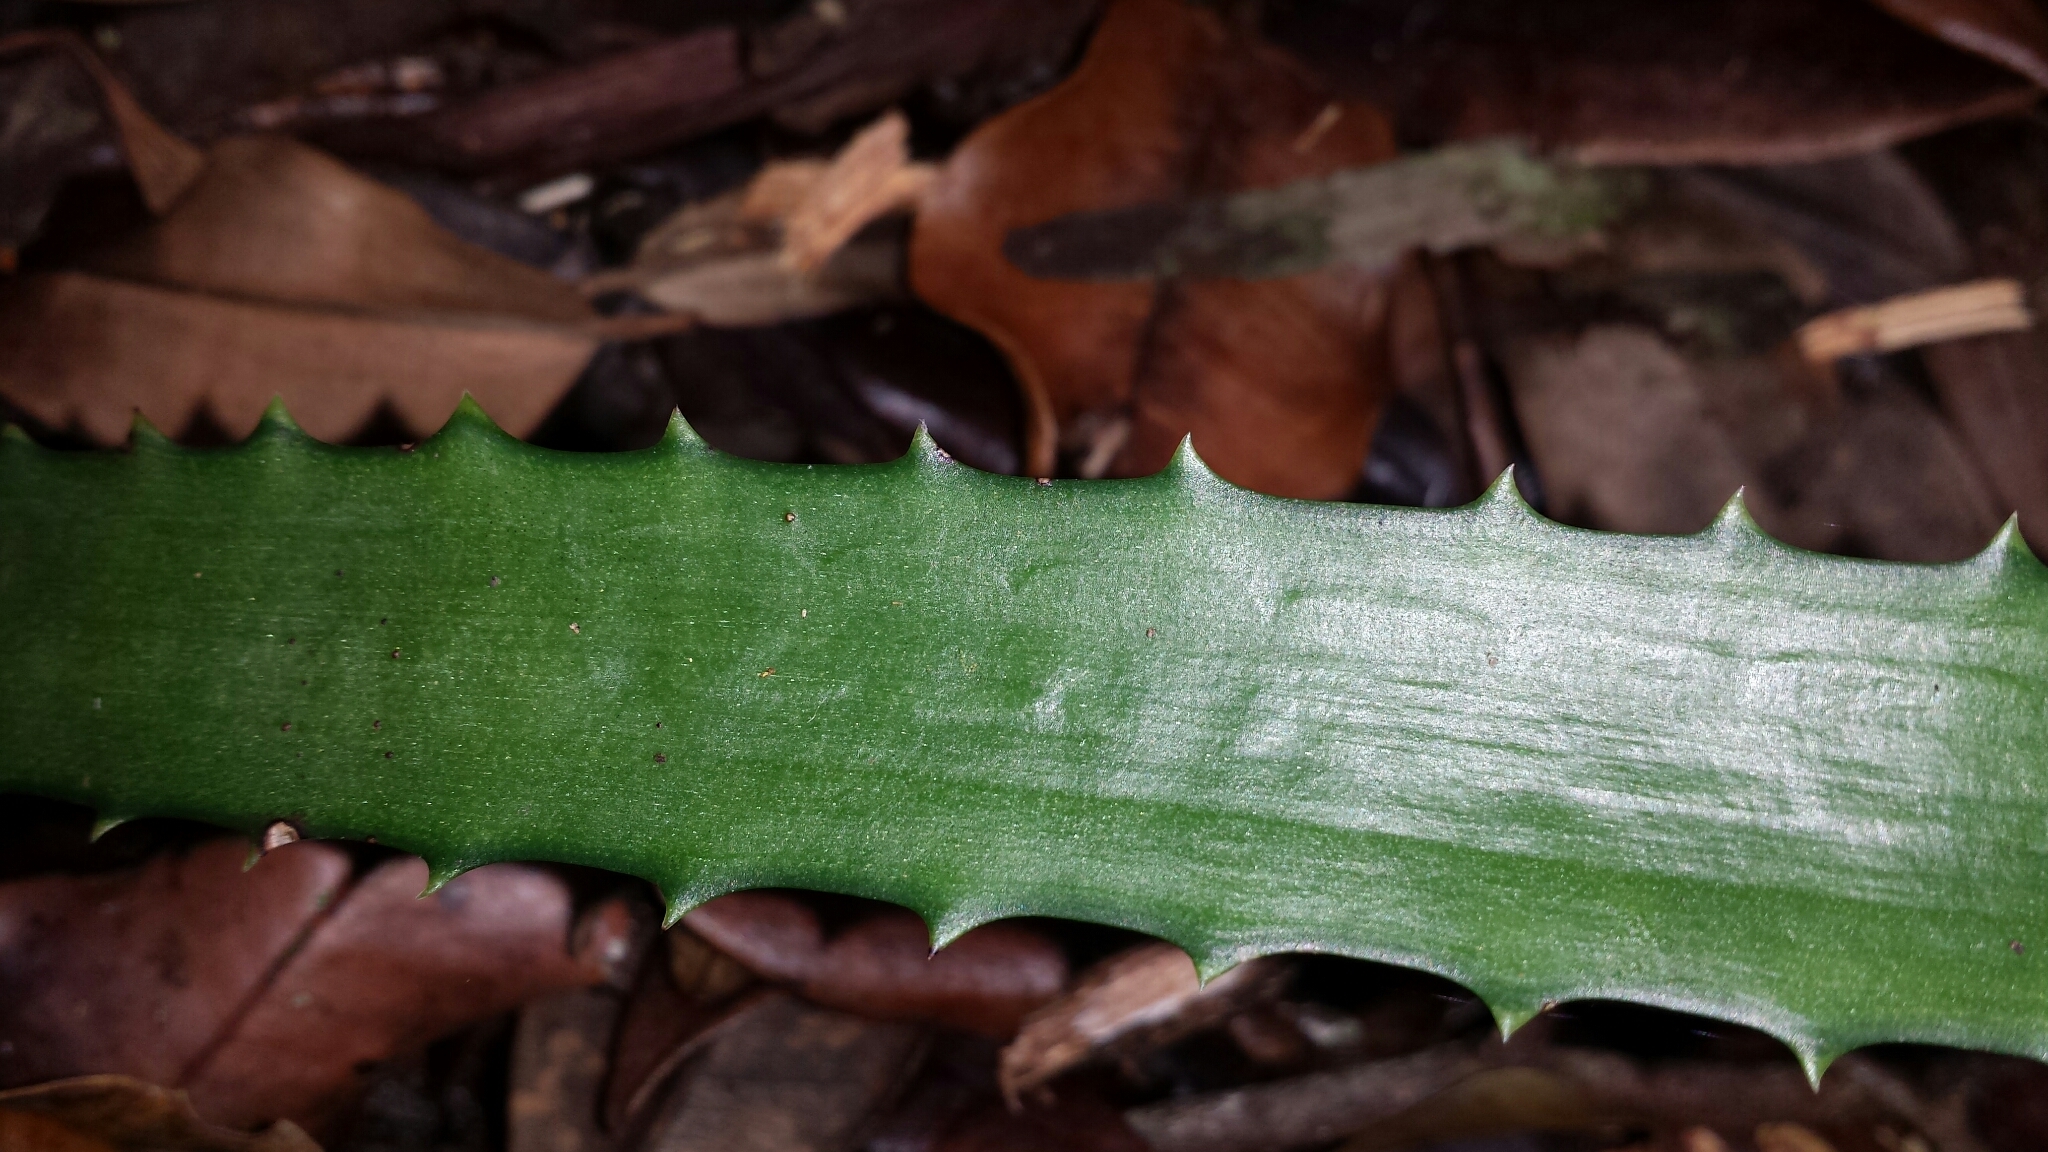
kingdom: Plantae
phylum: Tracheophyta
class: Liliopsida
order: Asparagales
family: Asphodelaceae
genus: Aloe
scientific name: Aloe rosea
